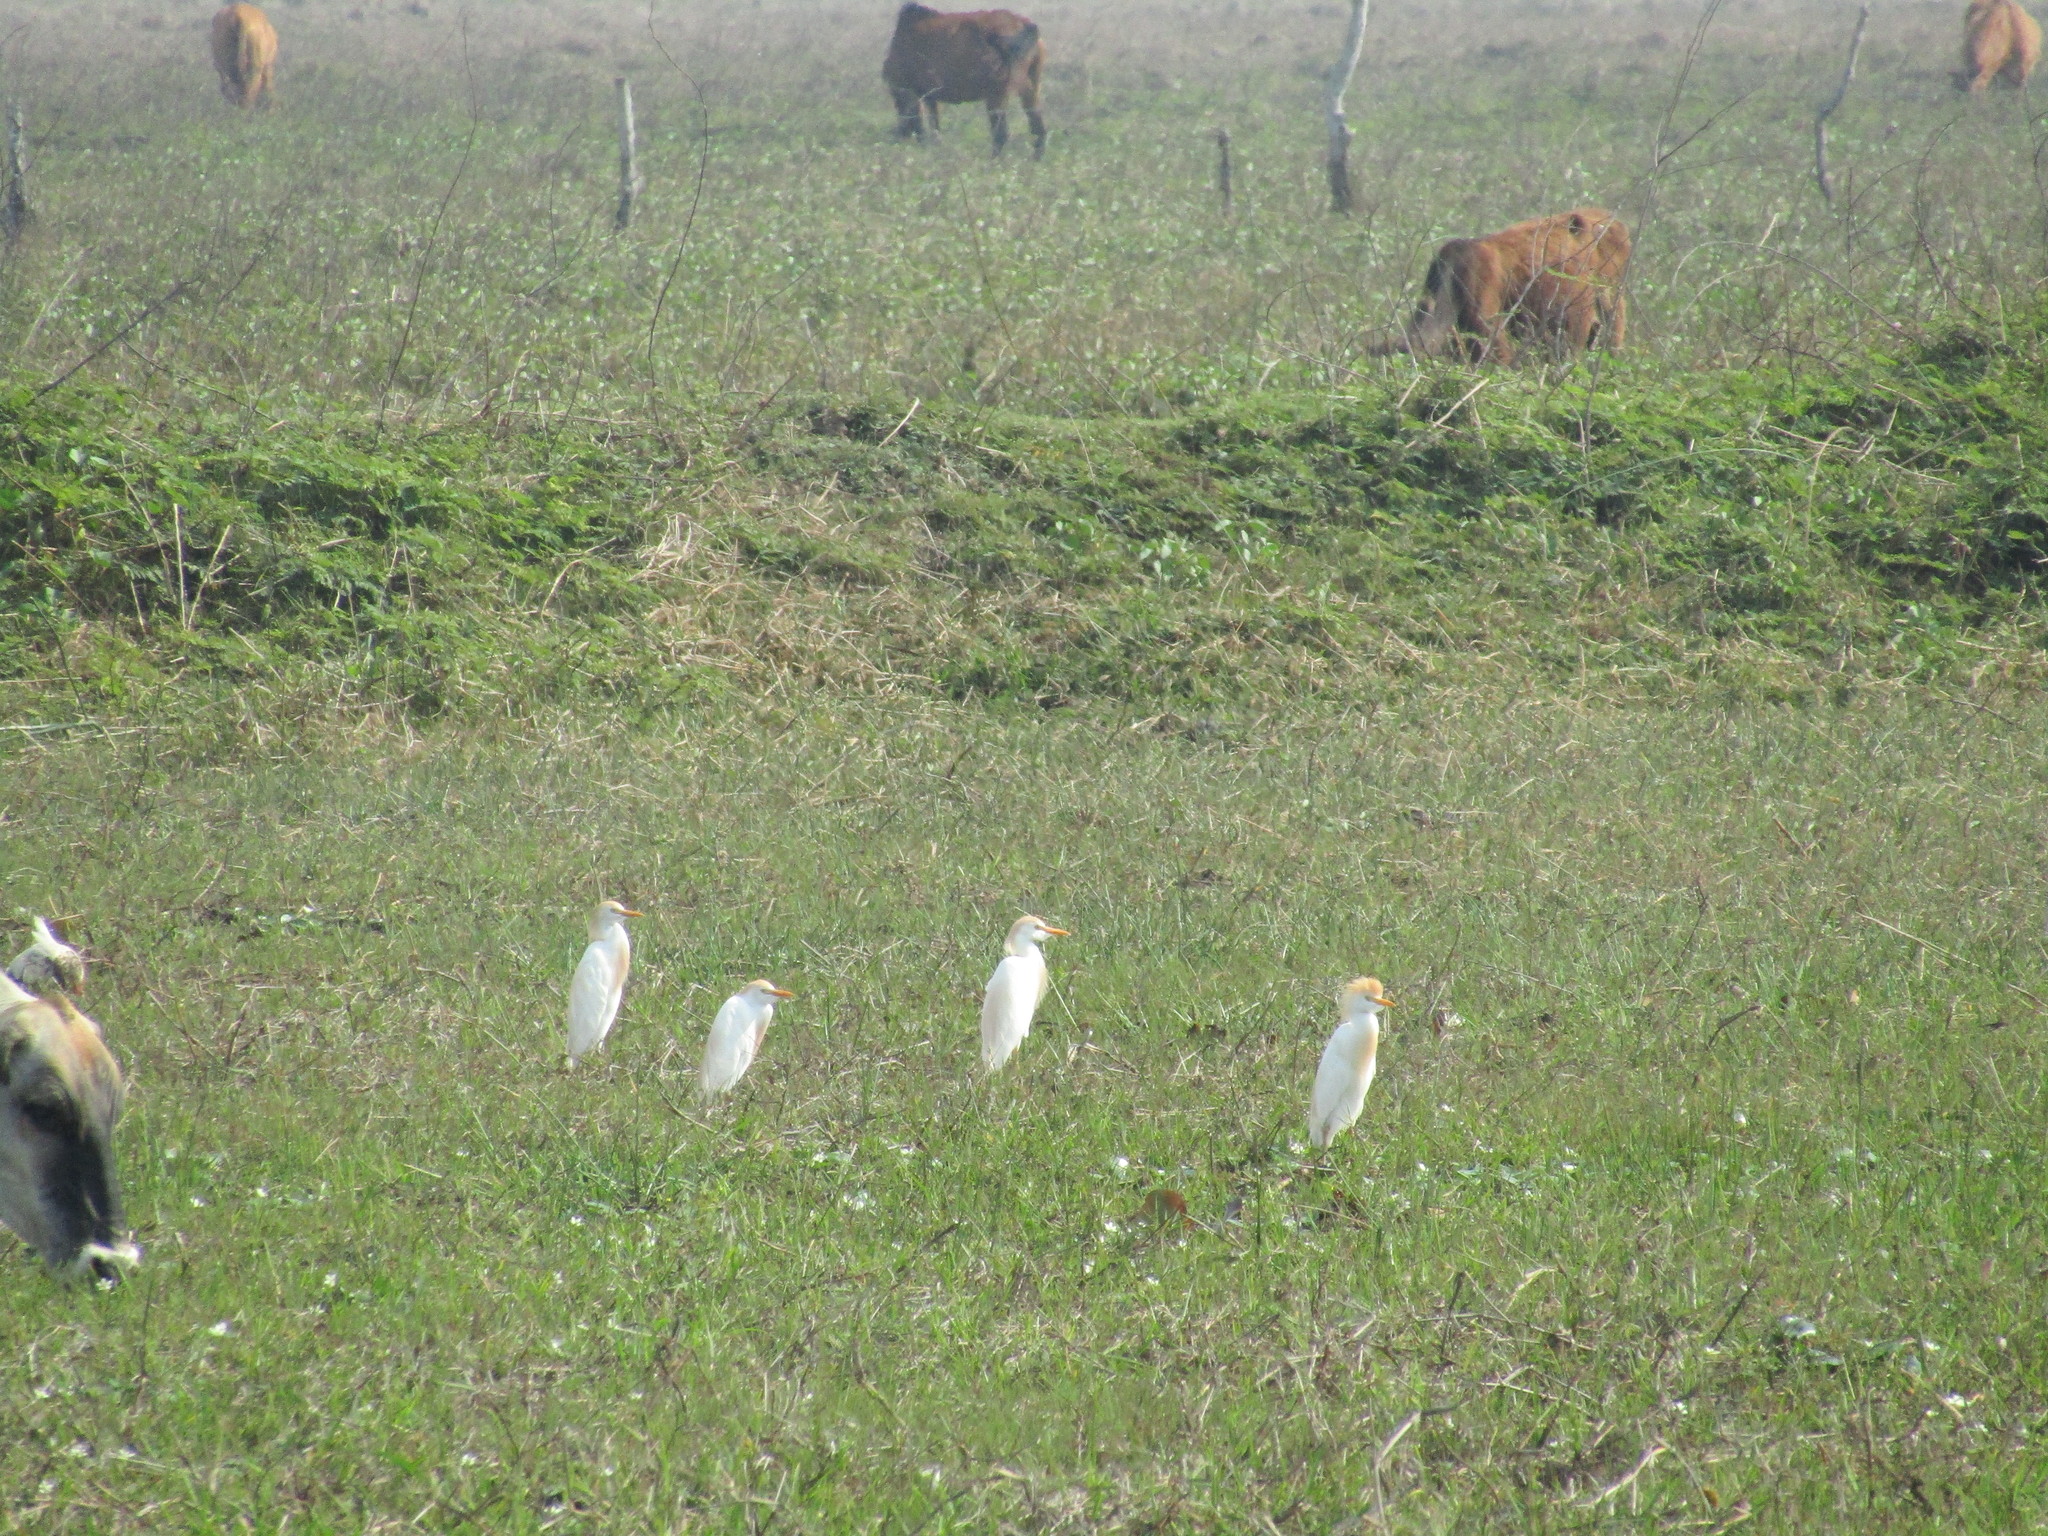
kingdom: Animalia
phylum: Chordata
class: Aves
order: Pelecaniformes
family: Ardeidae
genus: Bubulcus
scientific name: Bubulcus ibis
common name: Cattle egret
